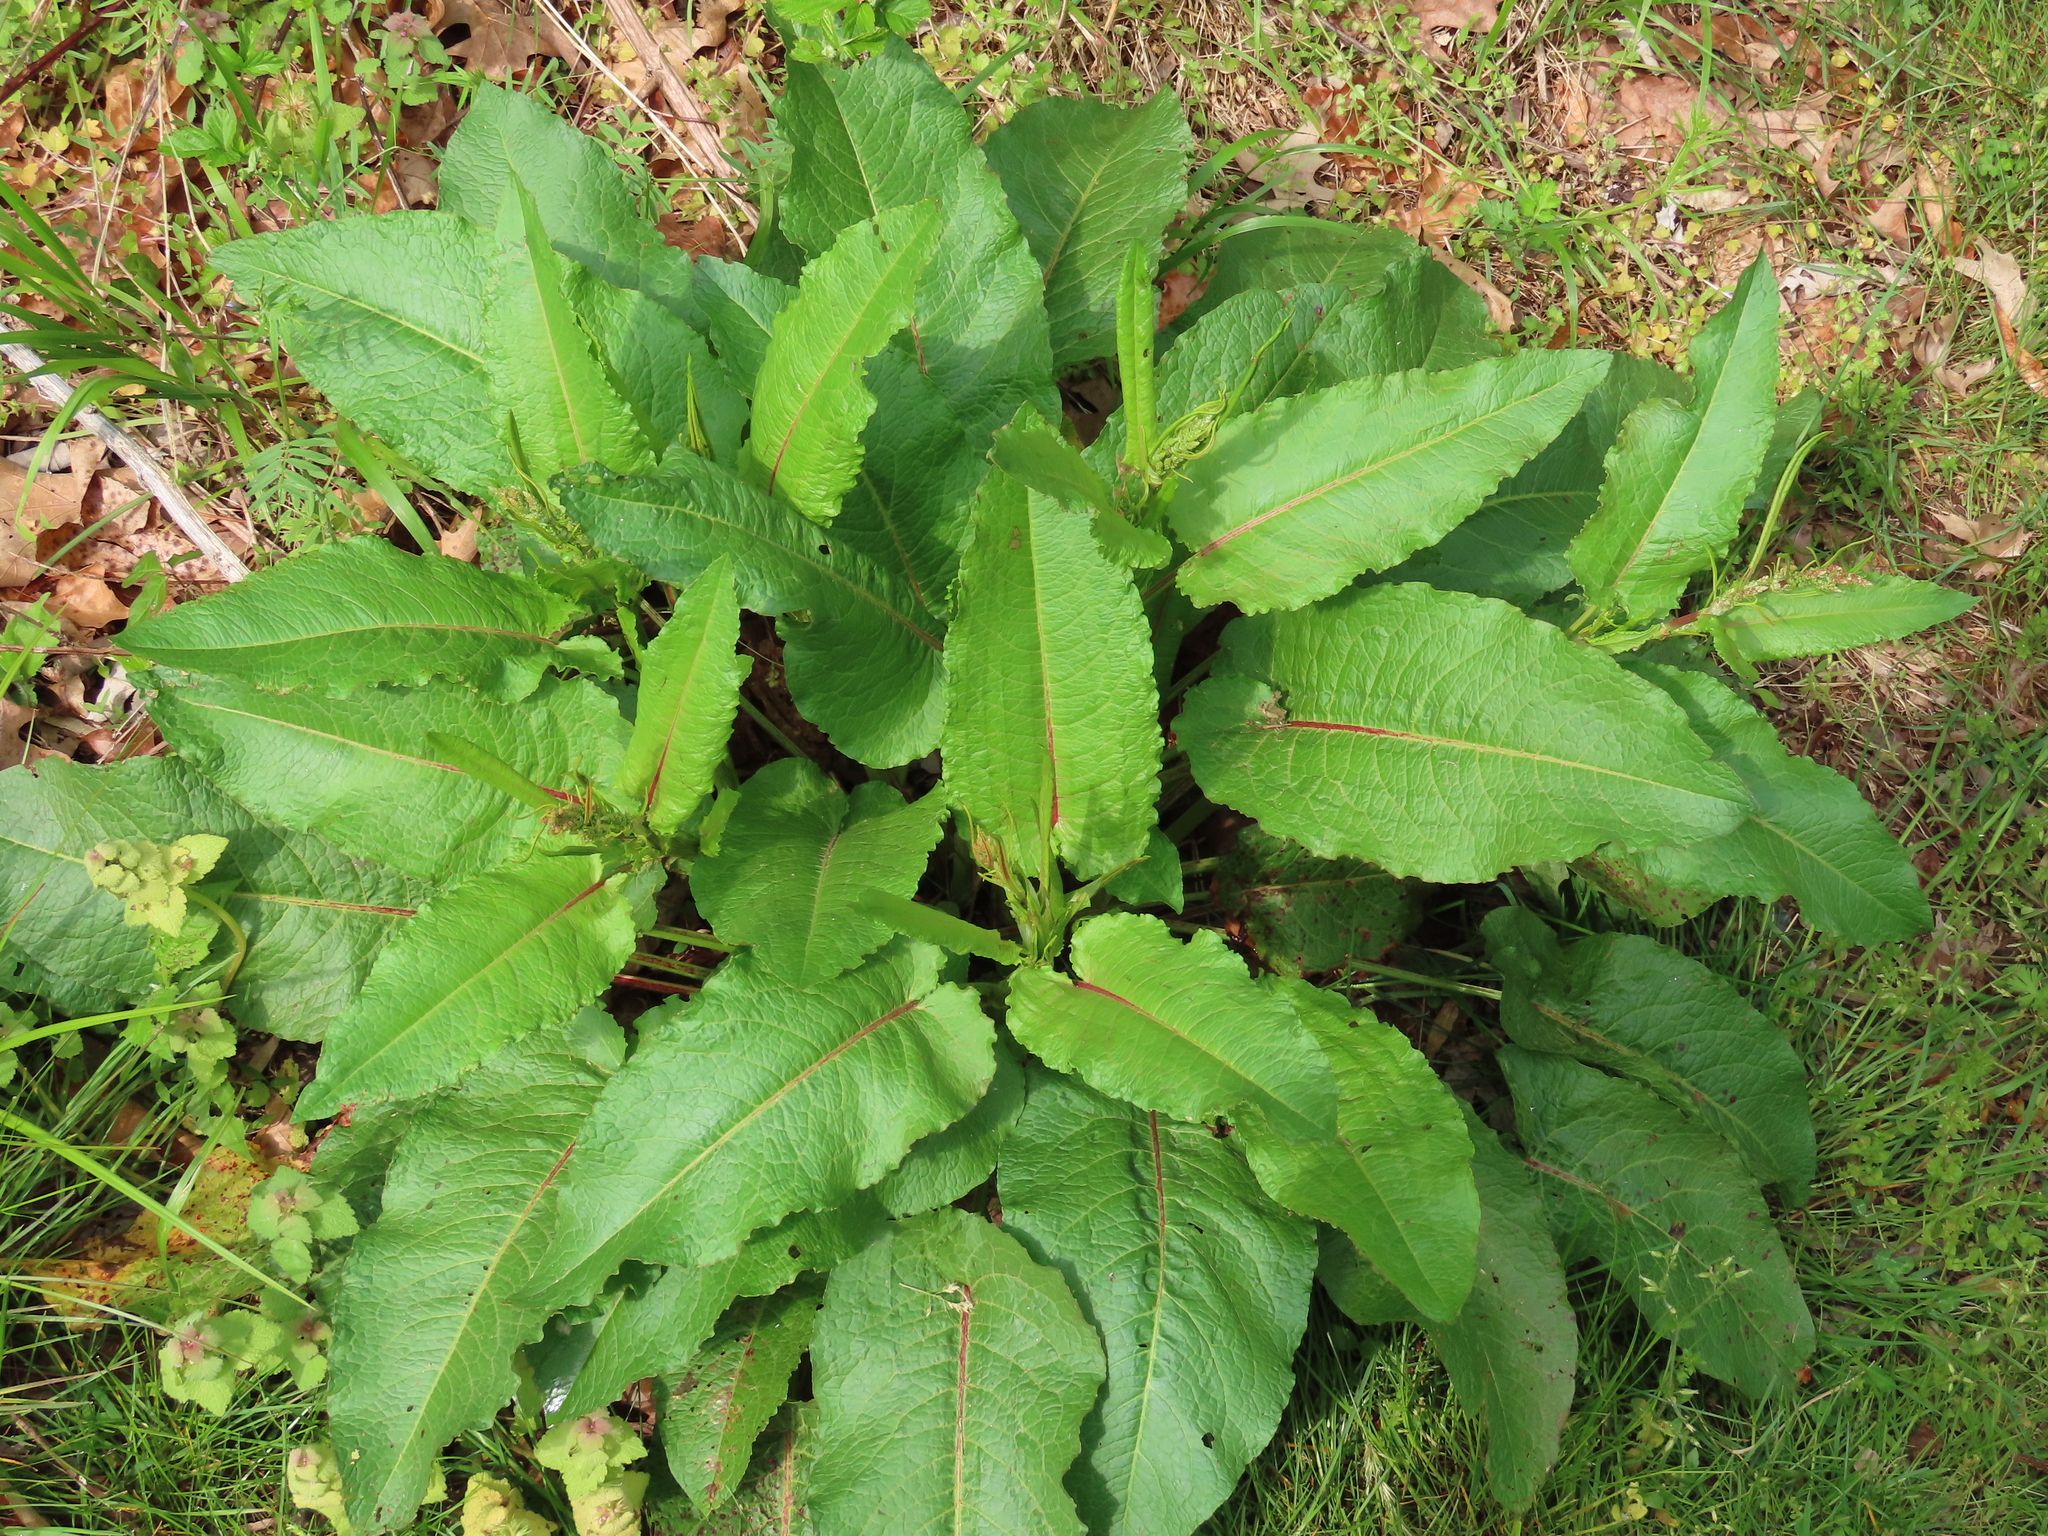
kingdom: Plantae
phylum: Tracheophyta
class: Magnoliopsida
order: Caryophyllales
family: Polygonaceae
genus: Rumex
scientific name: Rumex obtusifolius
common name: Bitter dock
